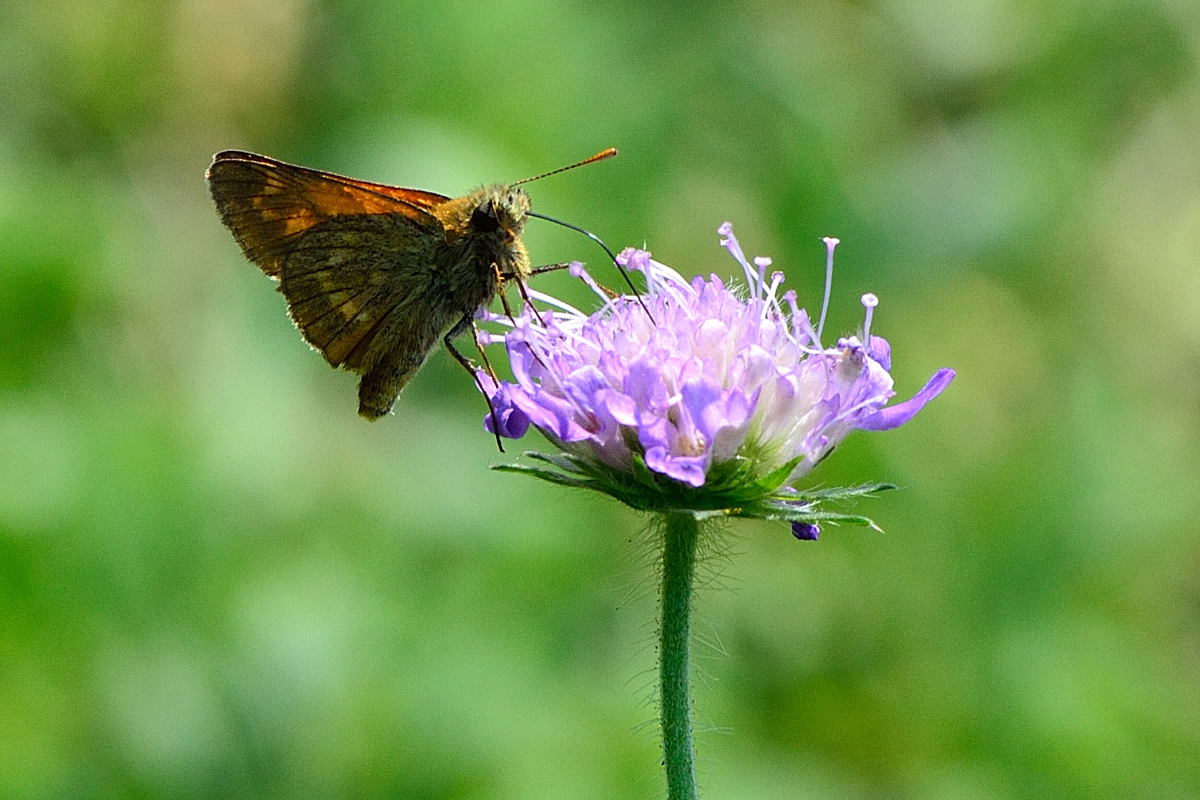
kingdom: Animalia
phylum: Arthropoda
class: Insecta
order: Lepidoptera
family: Hesperiidae
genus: Ochlodes
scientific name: Ochlodes venata
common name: Large skipper
